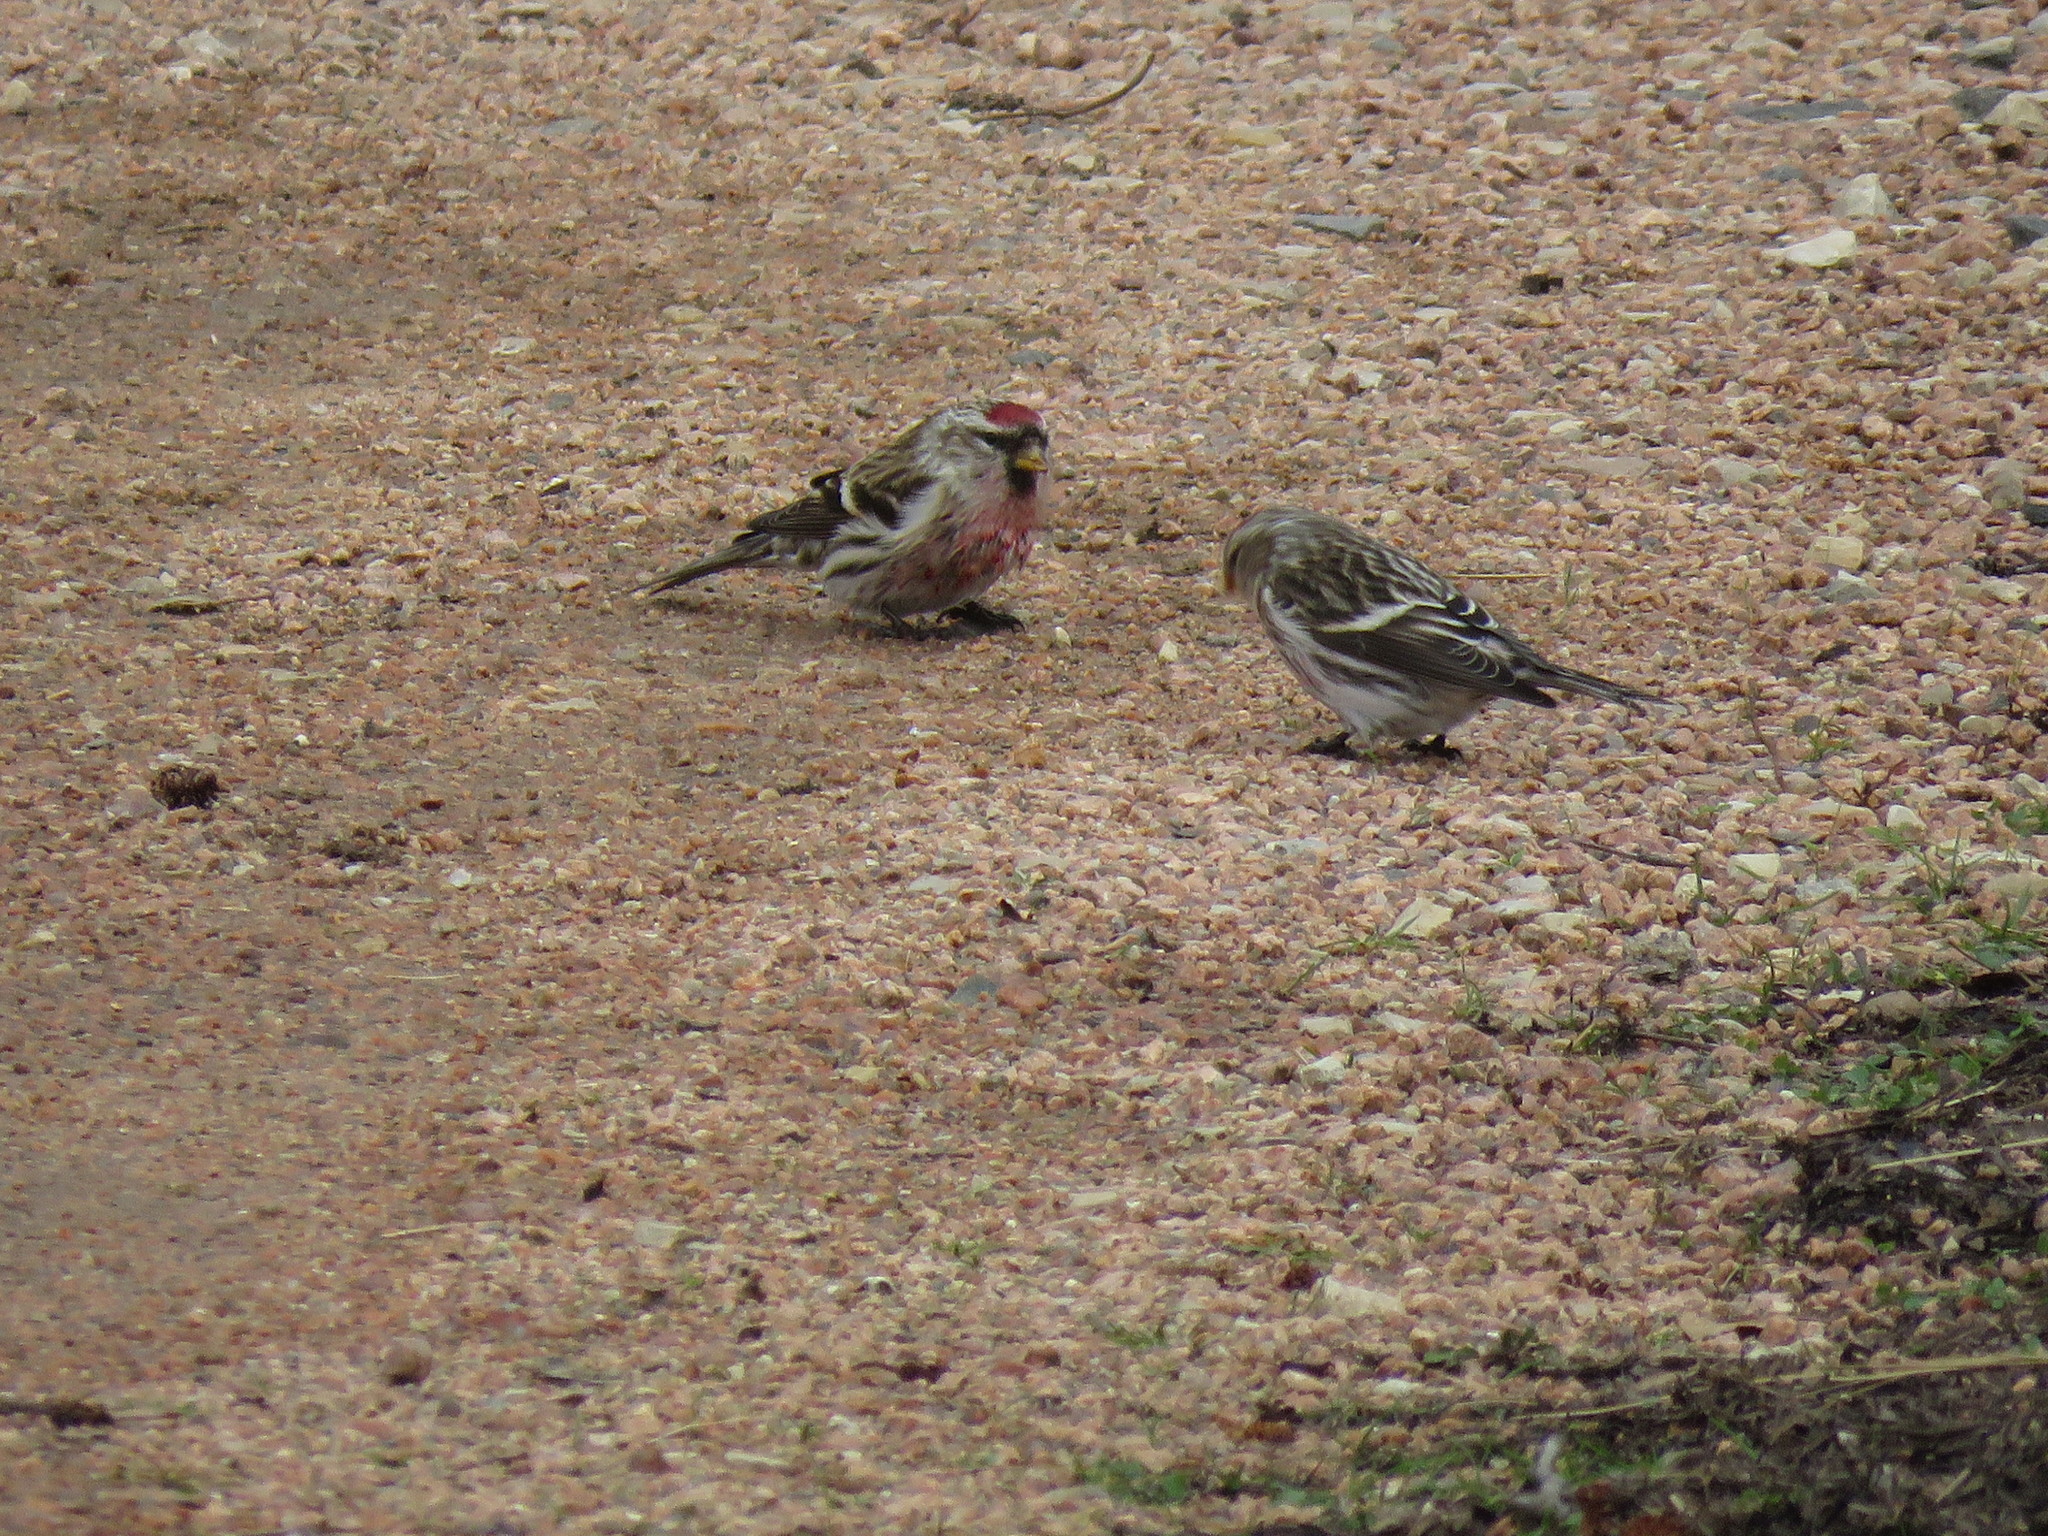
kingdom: Animalia
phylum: Chordata
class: Aves
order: Passeriformes
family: Fringillidae
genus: Acanthis
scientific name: Acanthis flammea
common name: Common redpoll
